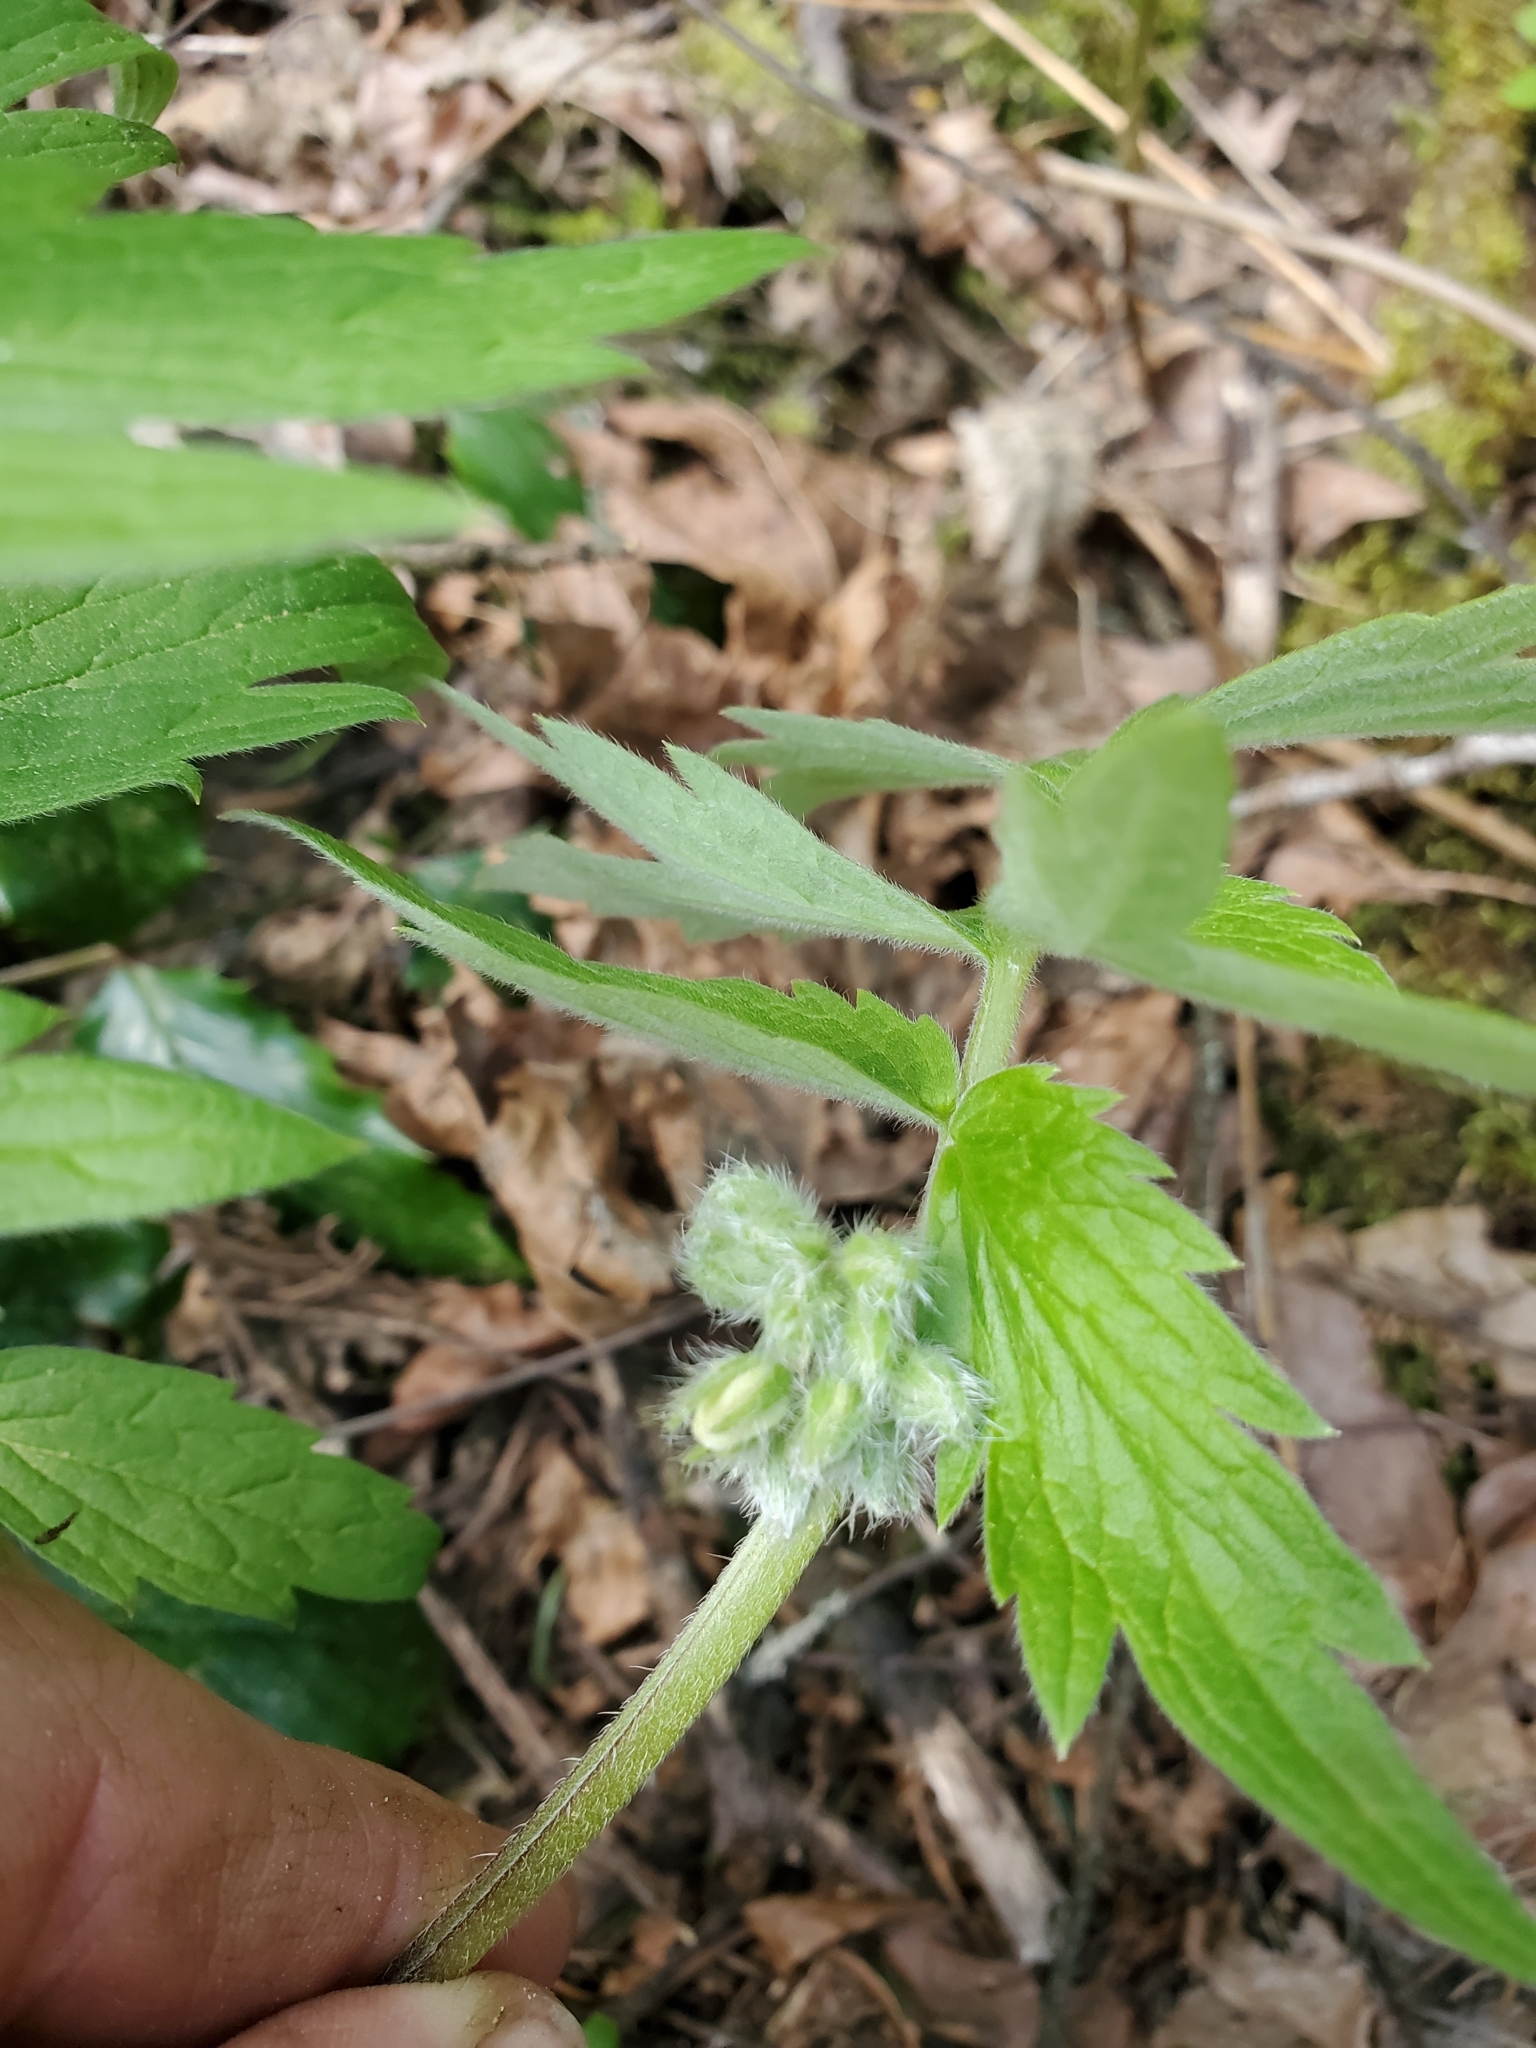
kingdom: Plantae
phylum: Tracheophyta
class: Magnoliopsida
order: Boraginales
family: Hydrophyllaceae
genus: Hydrophyllum
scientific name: Hydrophyllum fendleri
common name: Fendler's waterleaf
